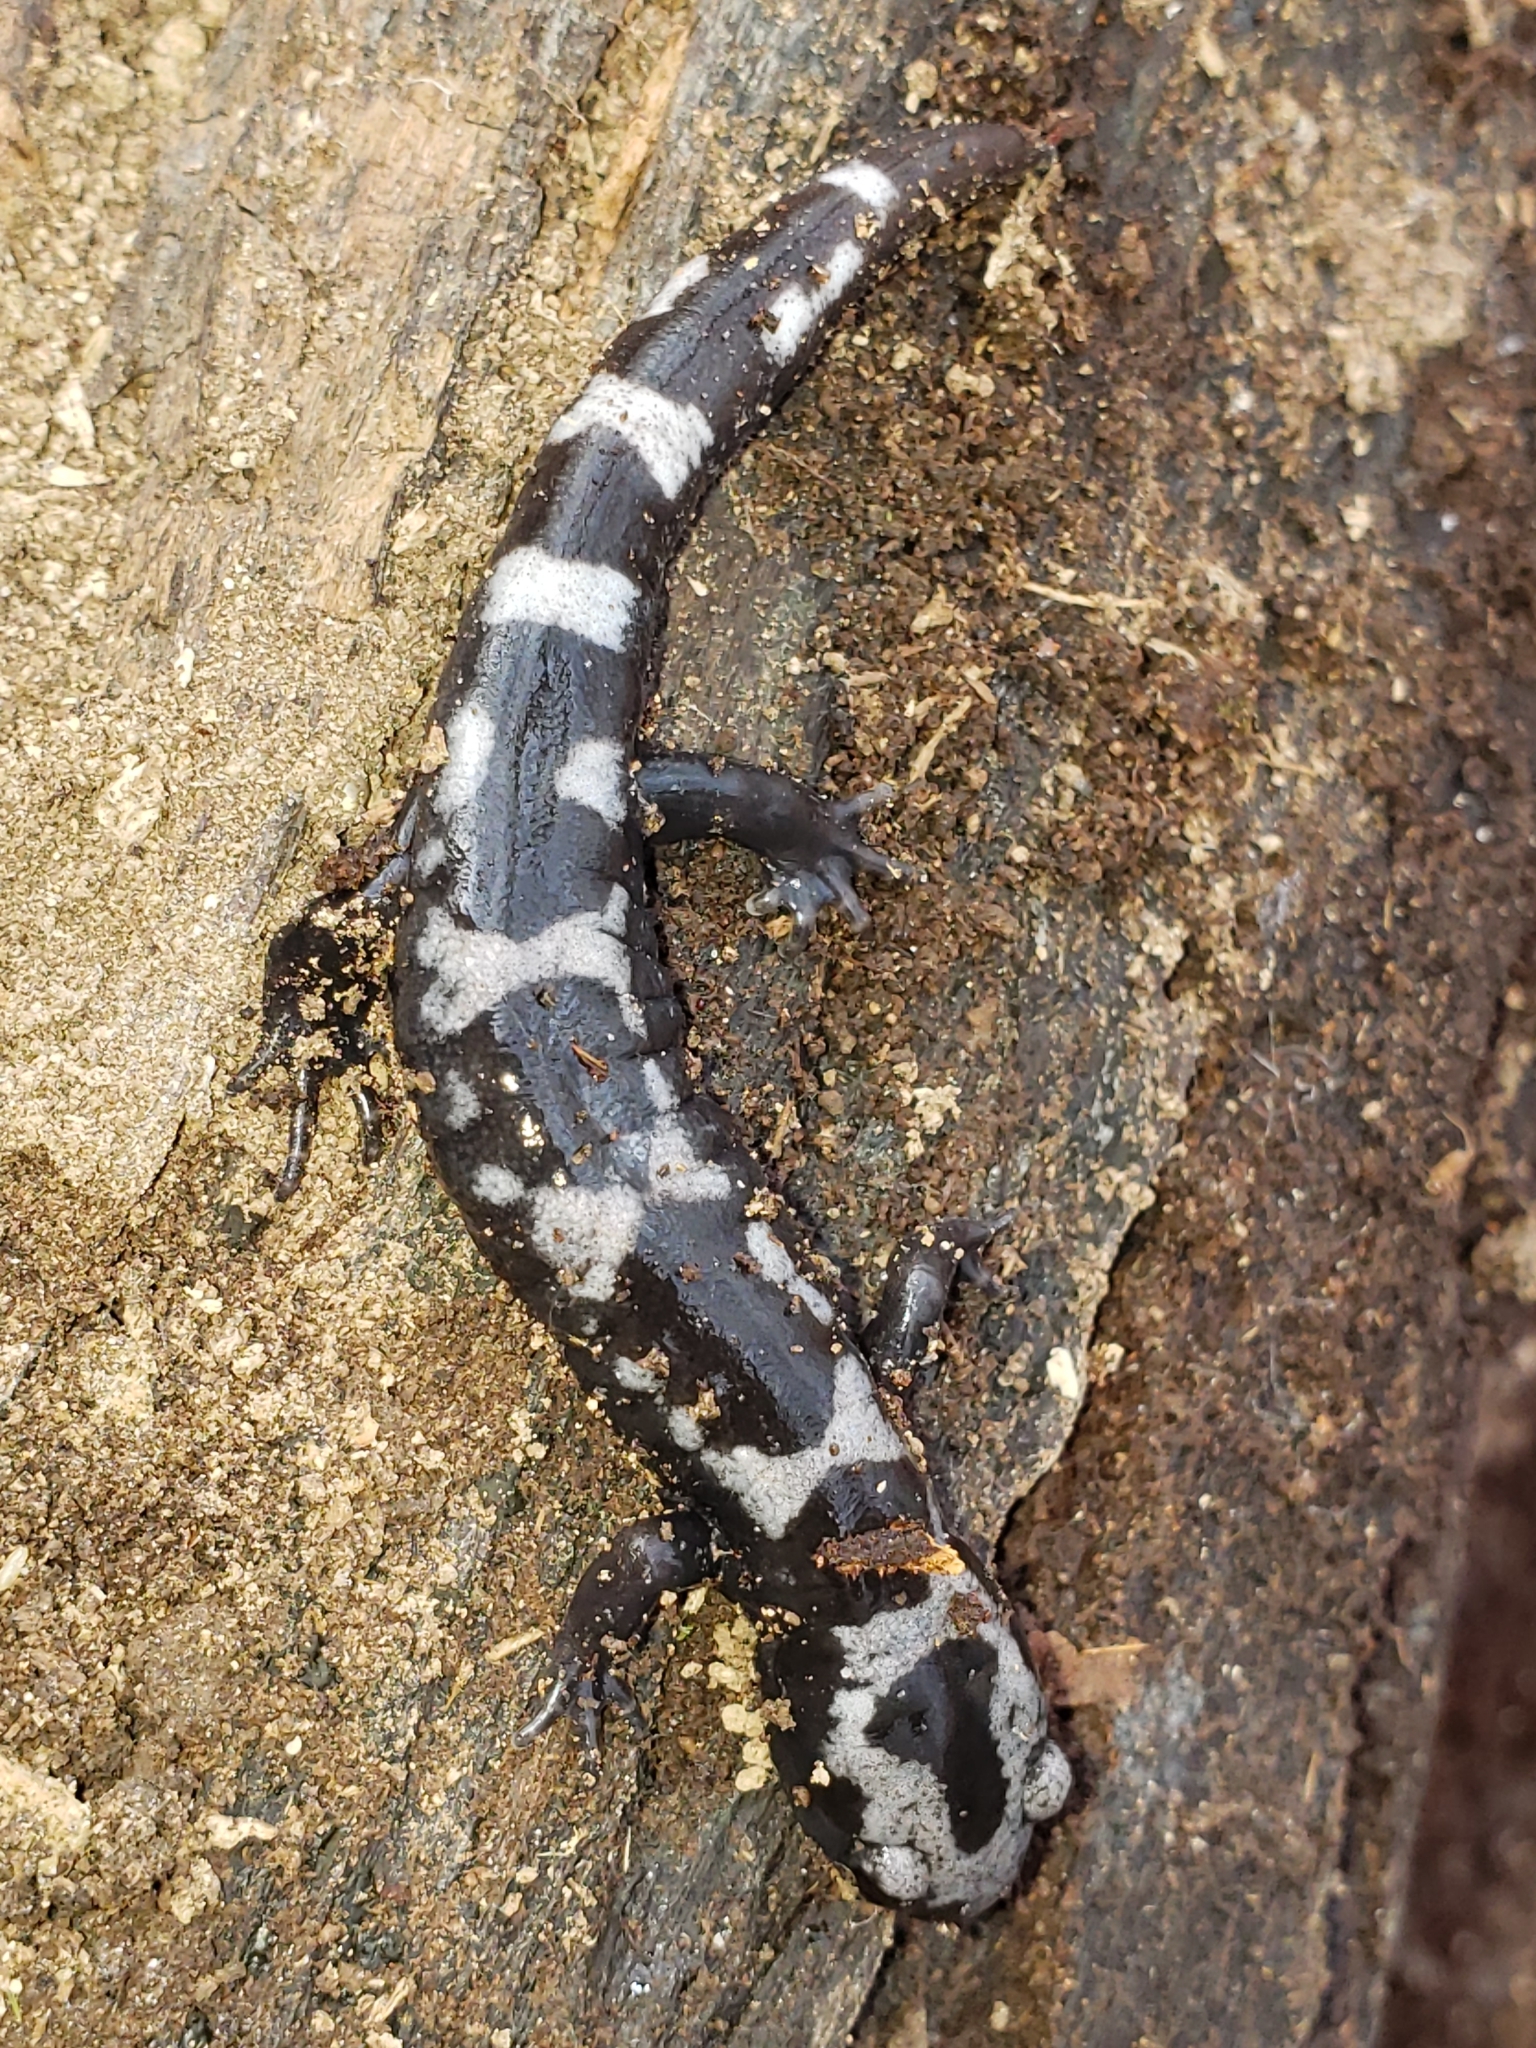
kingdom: Animalia
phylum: Chordata
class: Amphibia
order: Caudata
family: Ambystomatidae
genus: Ambystoma
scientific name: Ambystoma opacum
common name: Marbled salamander
